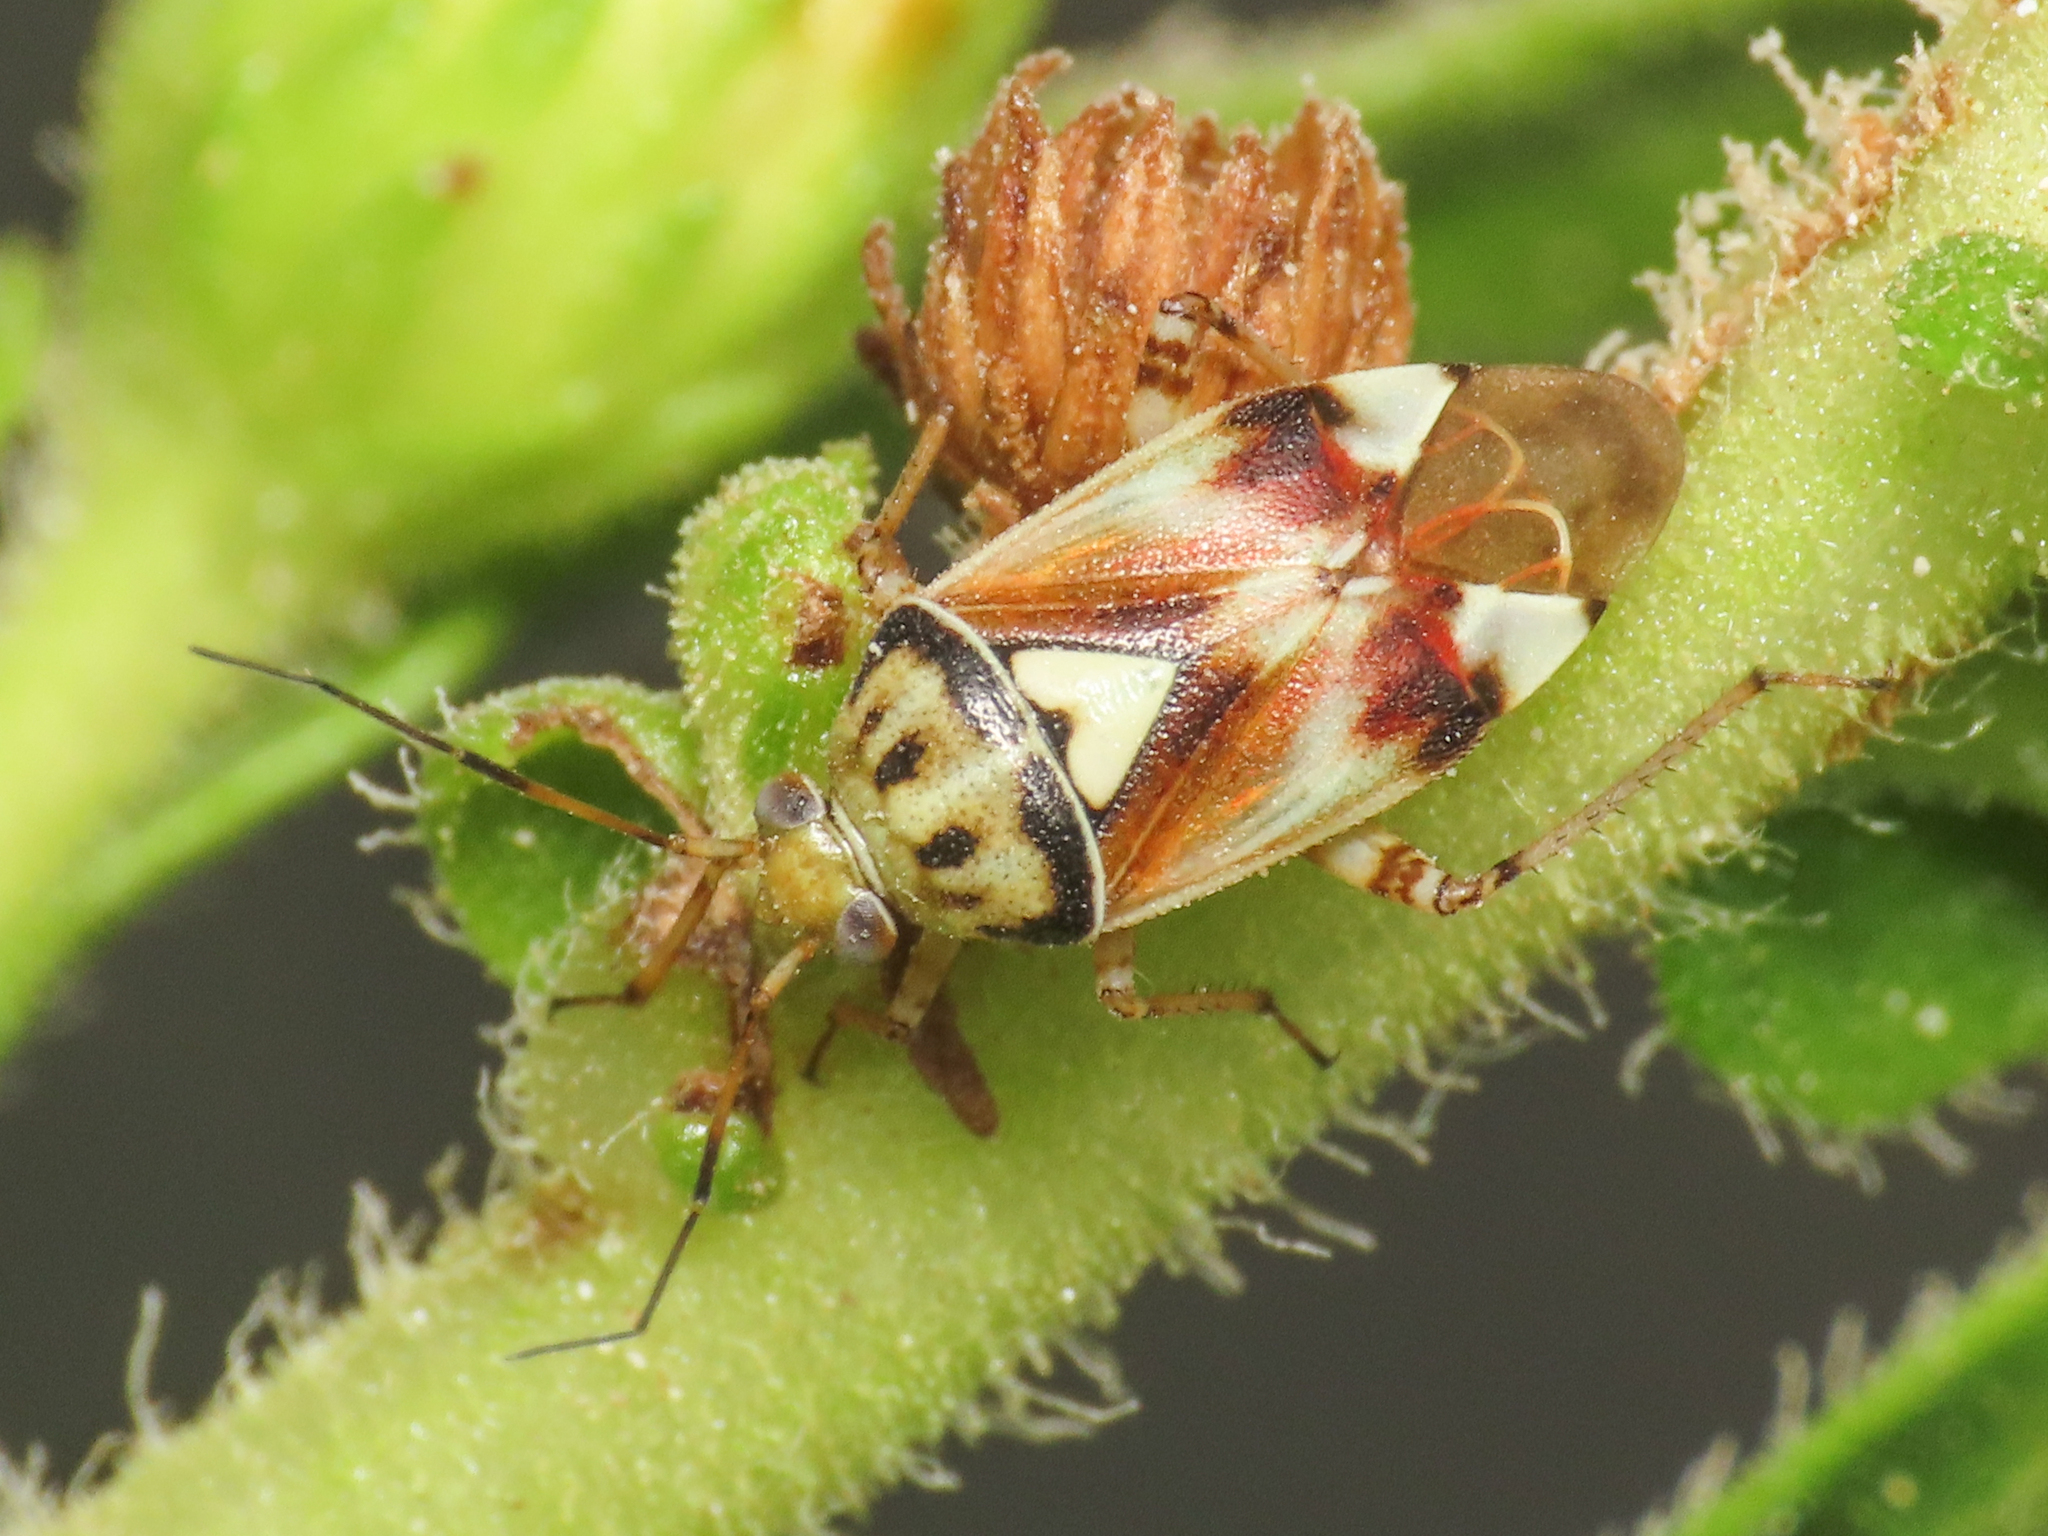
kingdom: Animalia
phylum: Arthropoda
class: Insecta
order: Hemiptera
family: Miridae
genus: Lygus
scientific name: Lygus pratensis
